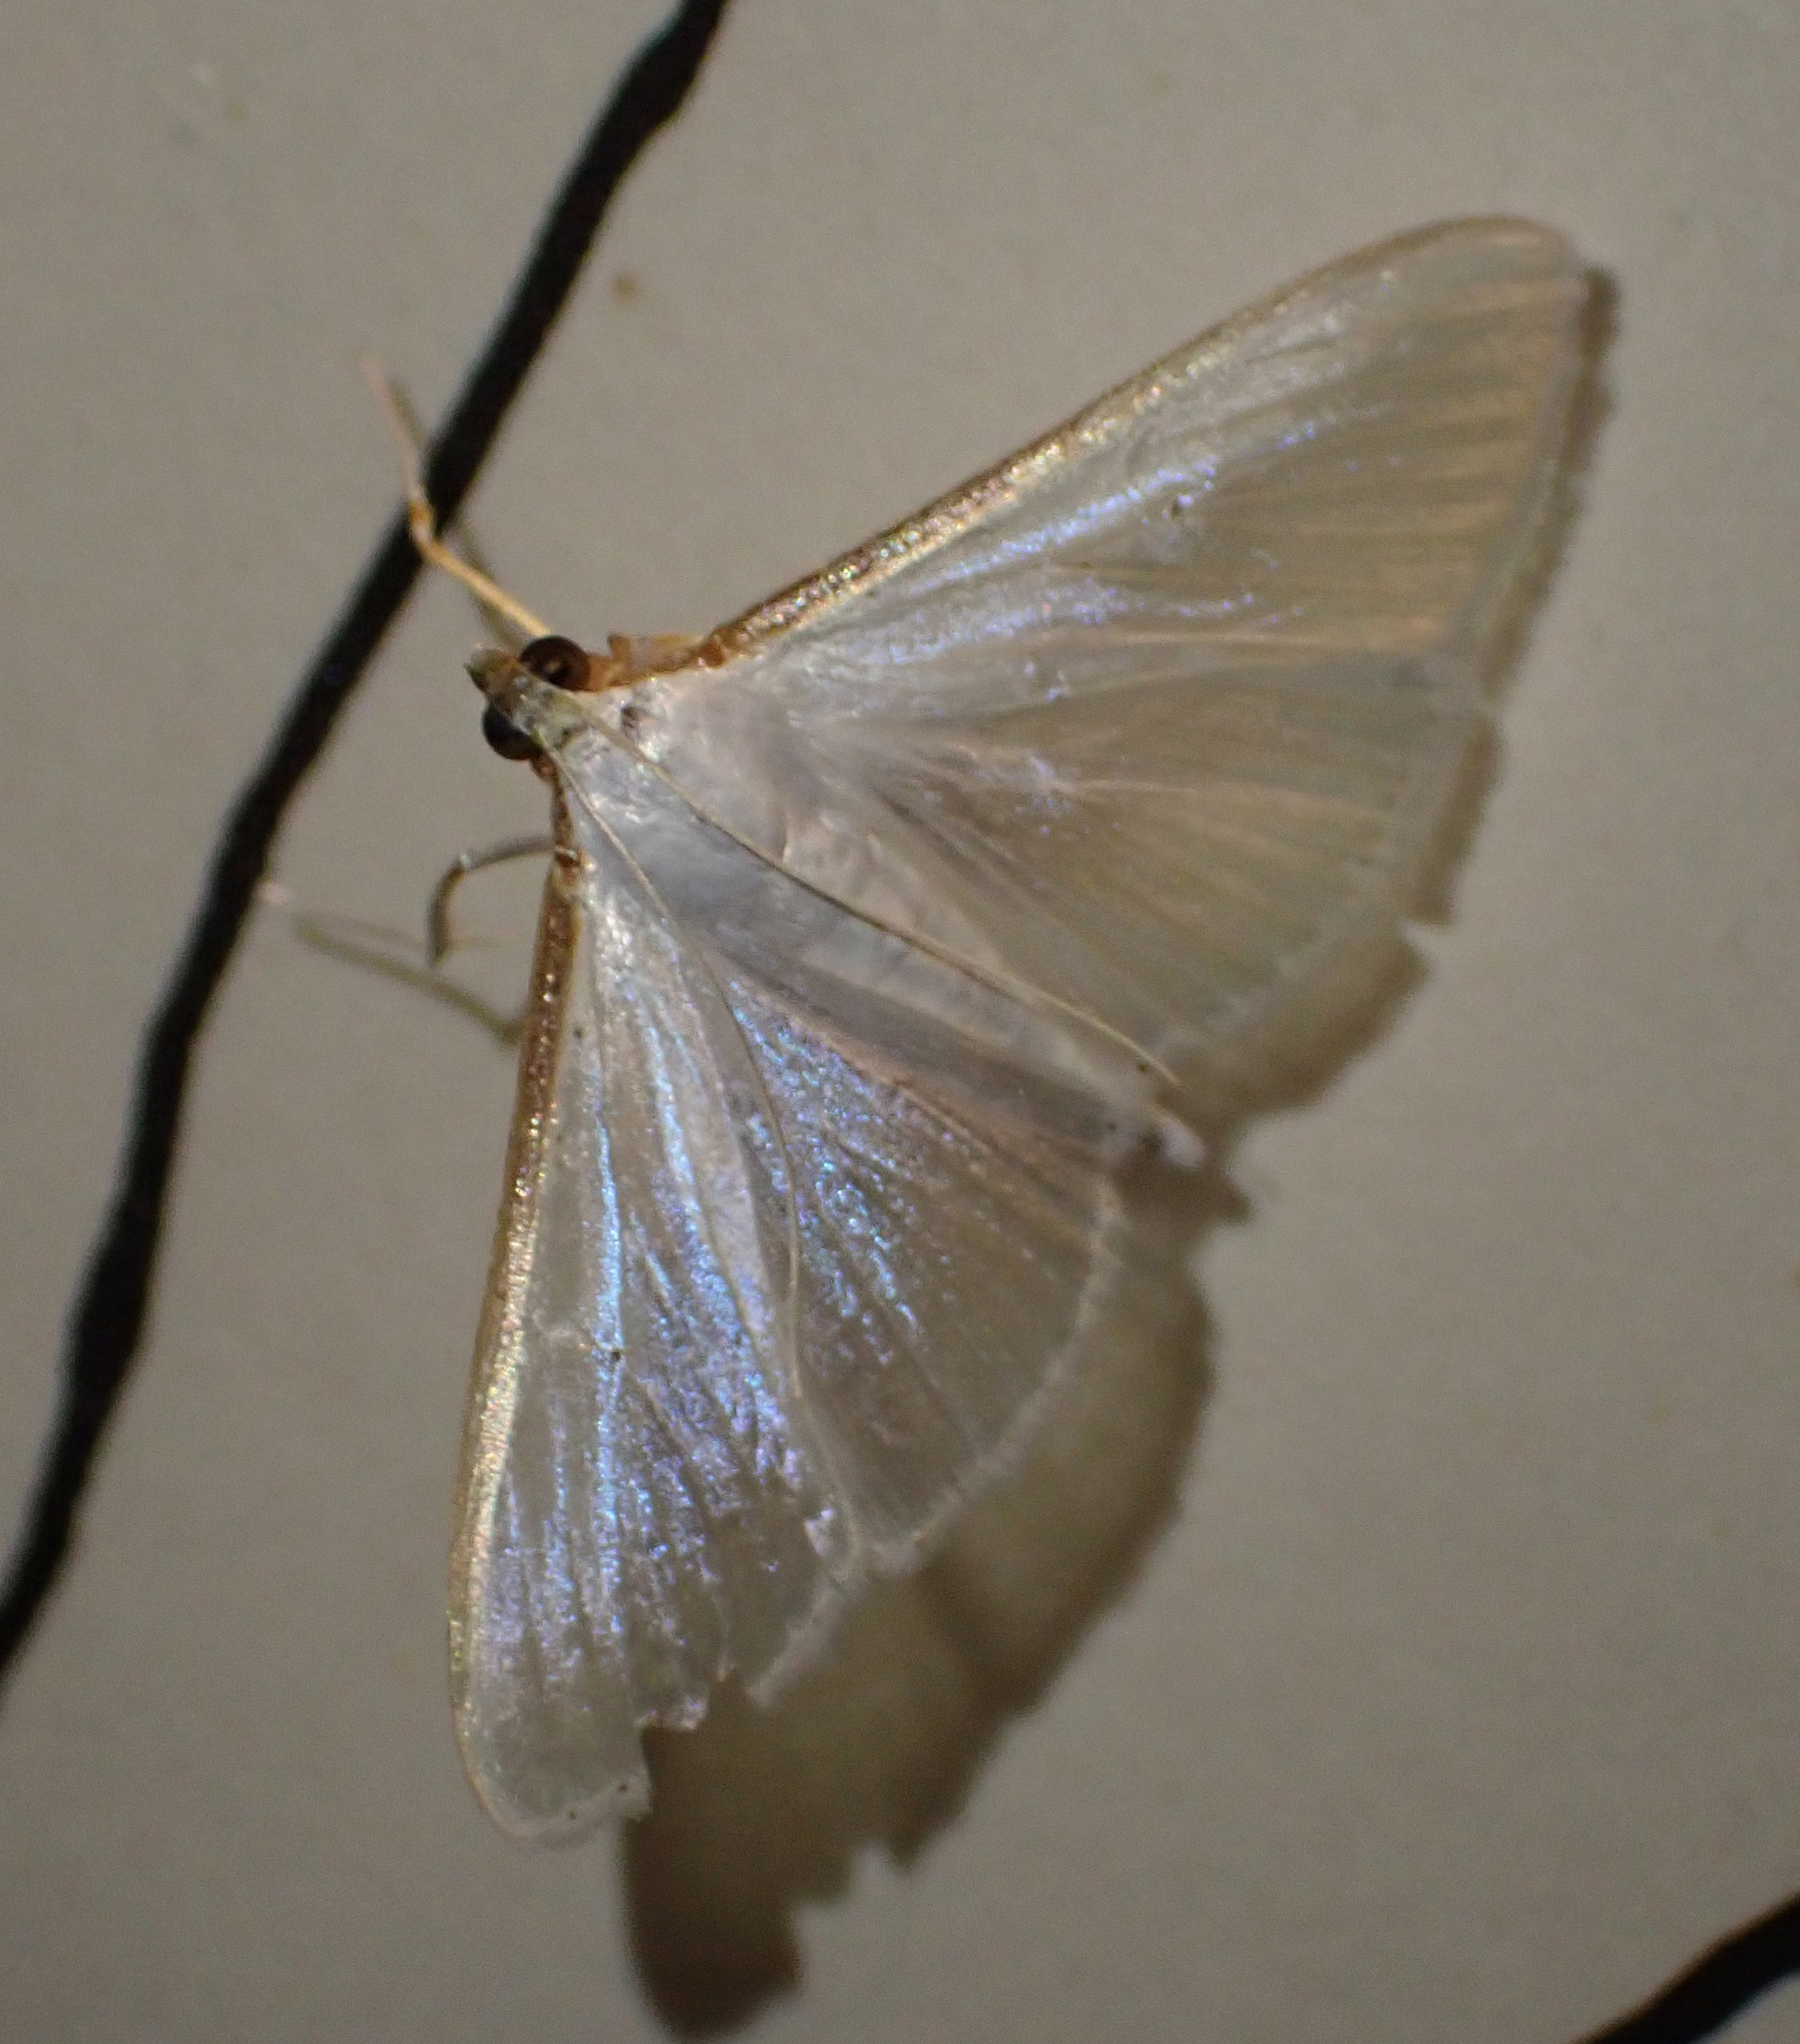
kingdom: Animalia
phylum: Arthropoda
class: Insecta
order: Lepidoptera
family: Crambidae
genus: Palpita
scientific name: Palpita vitrealis
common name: Olive-tree pearl
